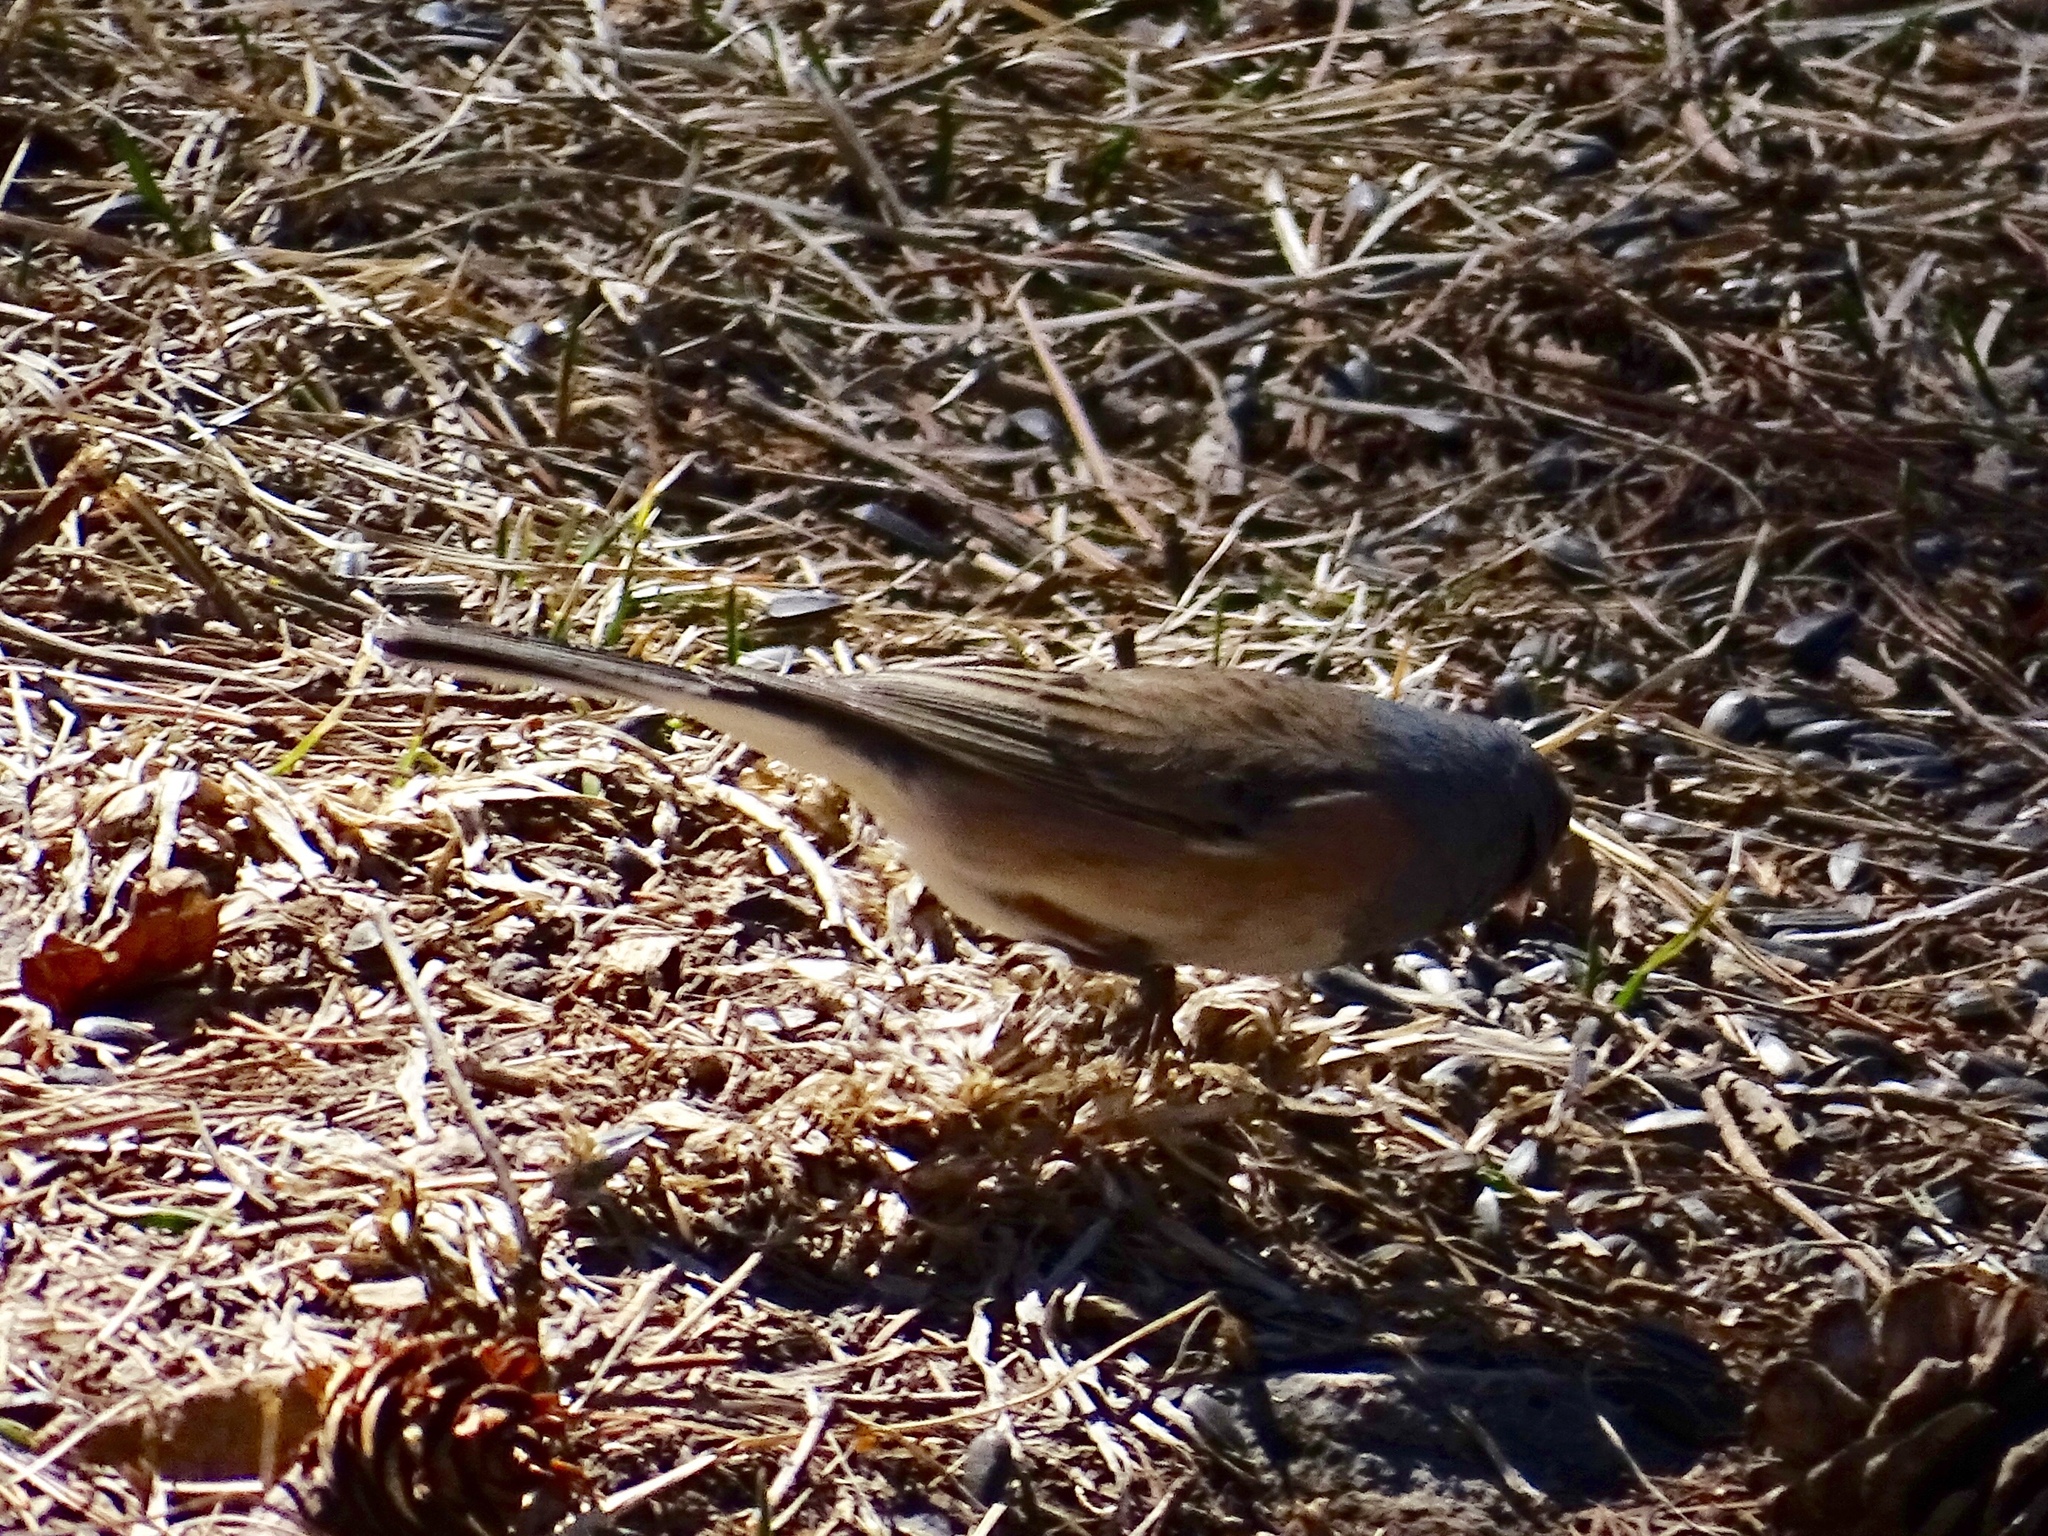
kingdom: Animalia
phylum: Chordata
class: Aves
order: Passeriformes
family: Passerellidae
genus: Junco
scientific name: Junco hyemalis
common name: Dark-eyed junco
